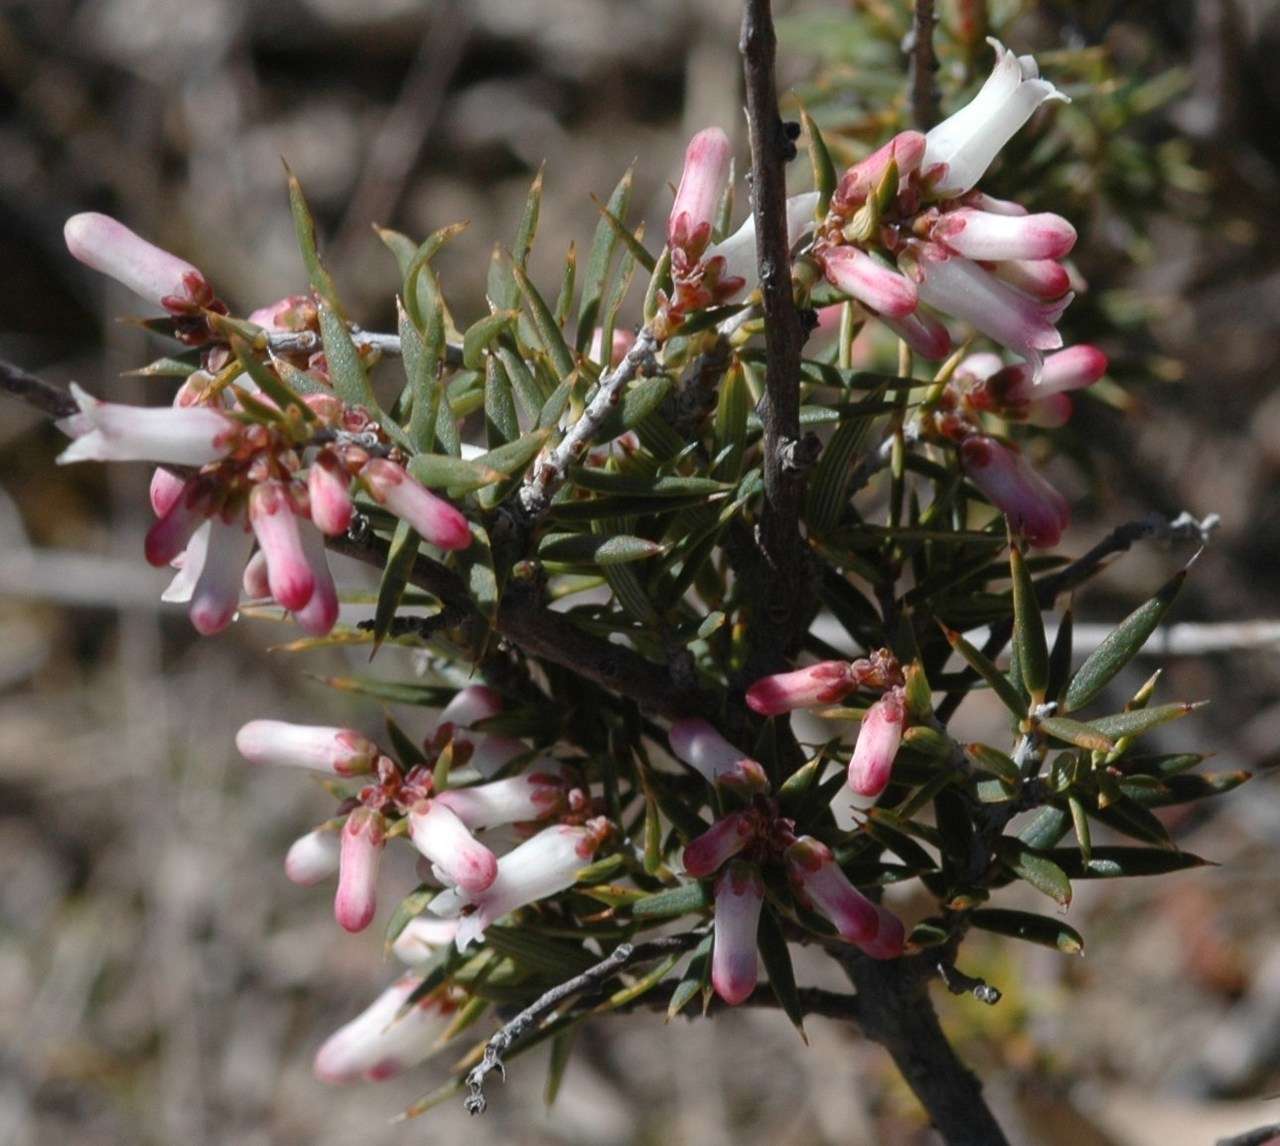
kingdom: Plantae
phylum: Tracheophyta
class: Magnoliopsida
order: Ericales
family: Ericaceae
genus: Lissanthe
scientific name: Lissanthe strigosa
